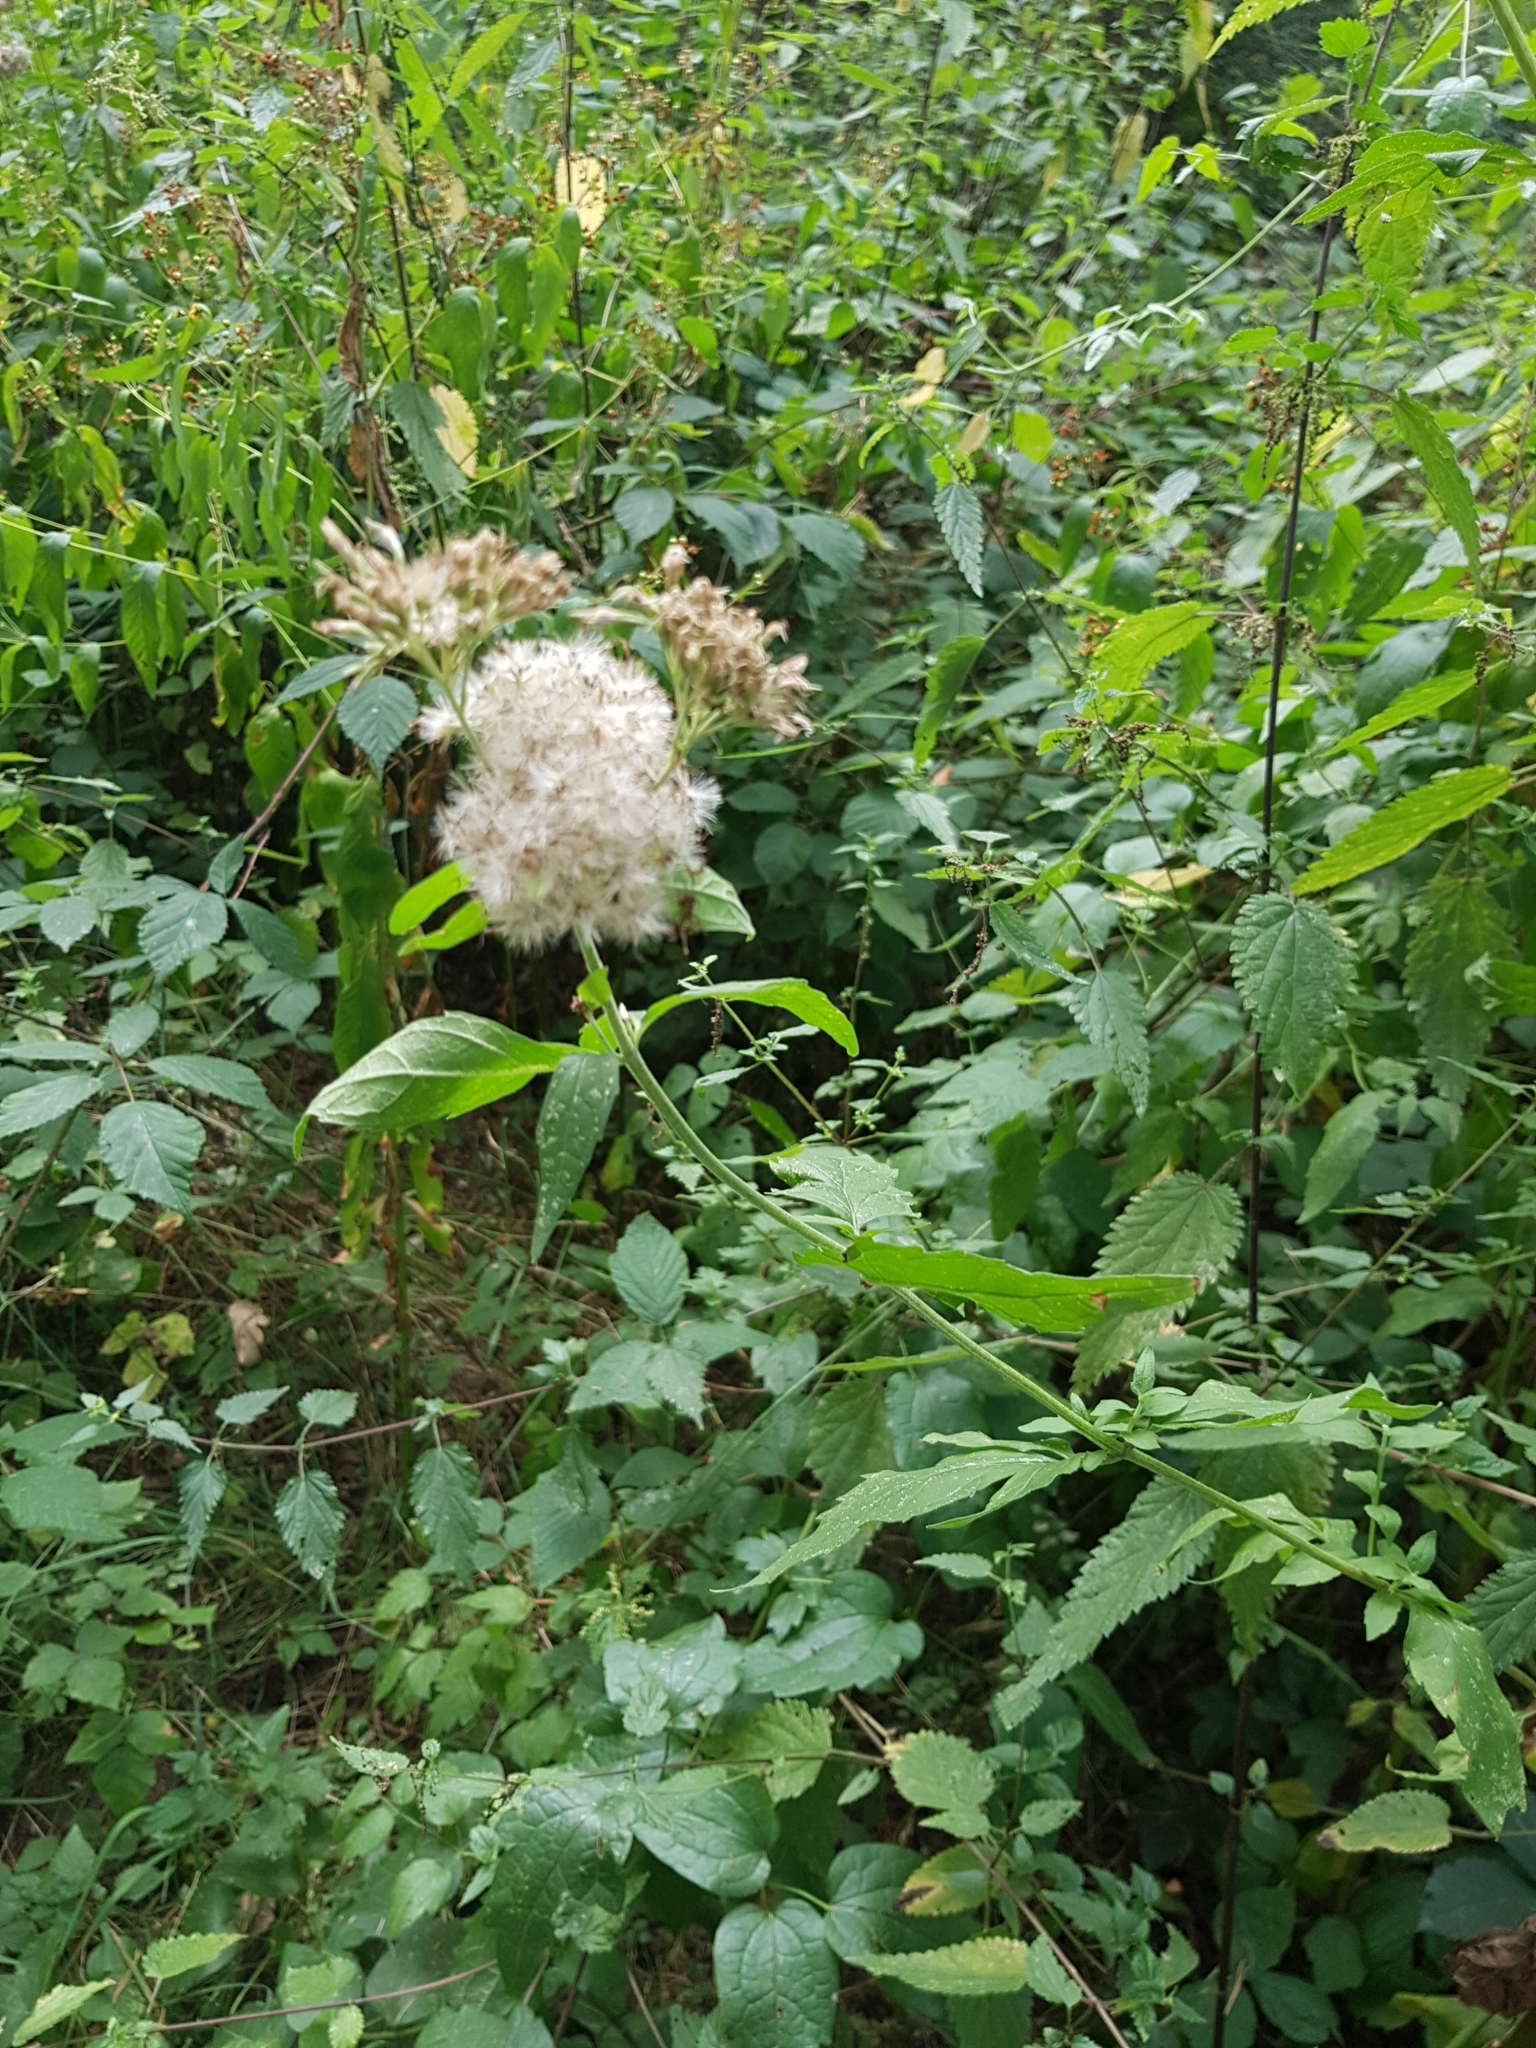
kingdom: Plantae
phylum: Tracheophyta
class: Magnoliopsida
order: Asterales
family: Asteraceae
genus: Eupatorium
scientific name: Eupatorium cannabinum
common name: Hemp-agrimony
